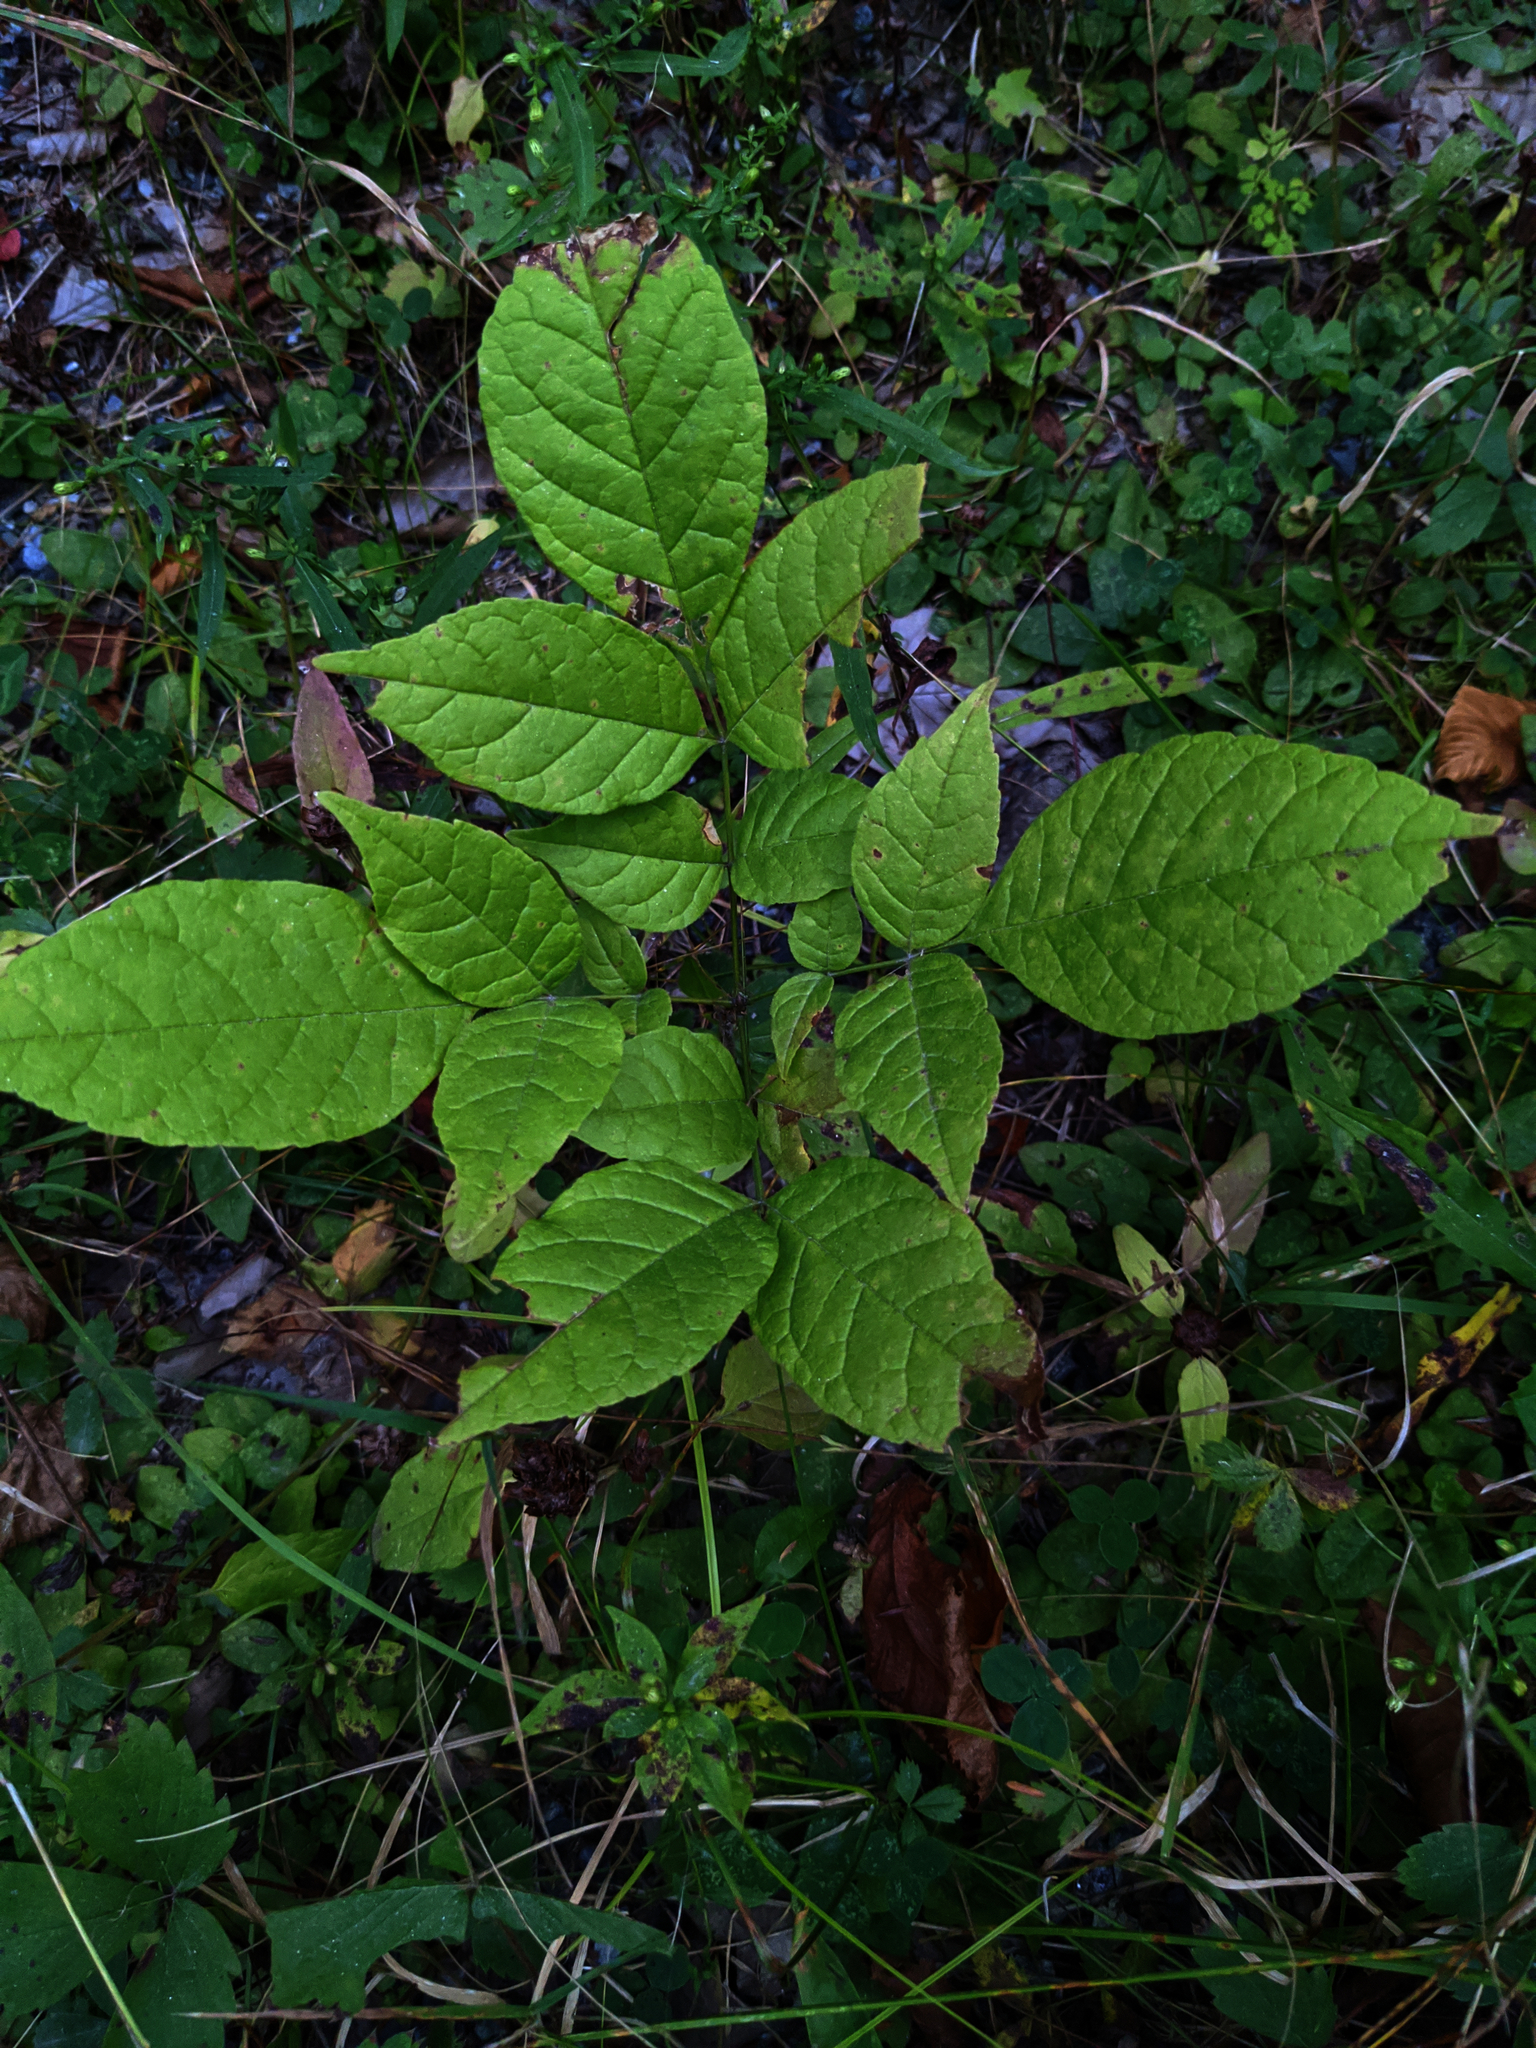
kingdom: Plantae
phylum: Tracheophyta
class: Magnoliopsida
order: Lamiales
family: Oleaceae
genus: Fraxinus
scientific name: Fraxinus americana
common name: White ash
